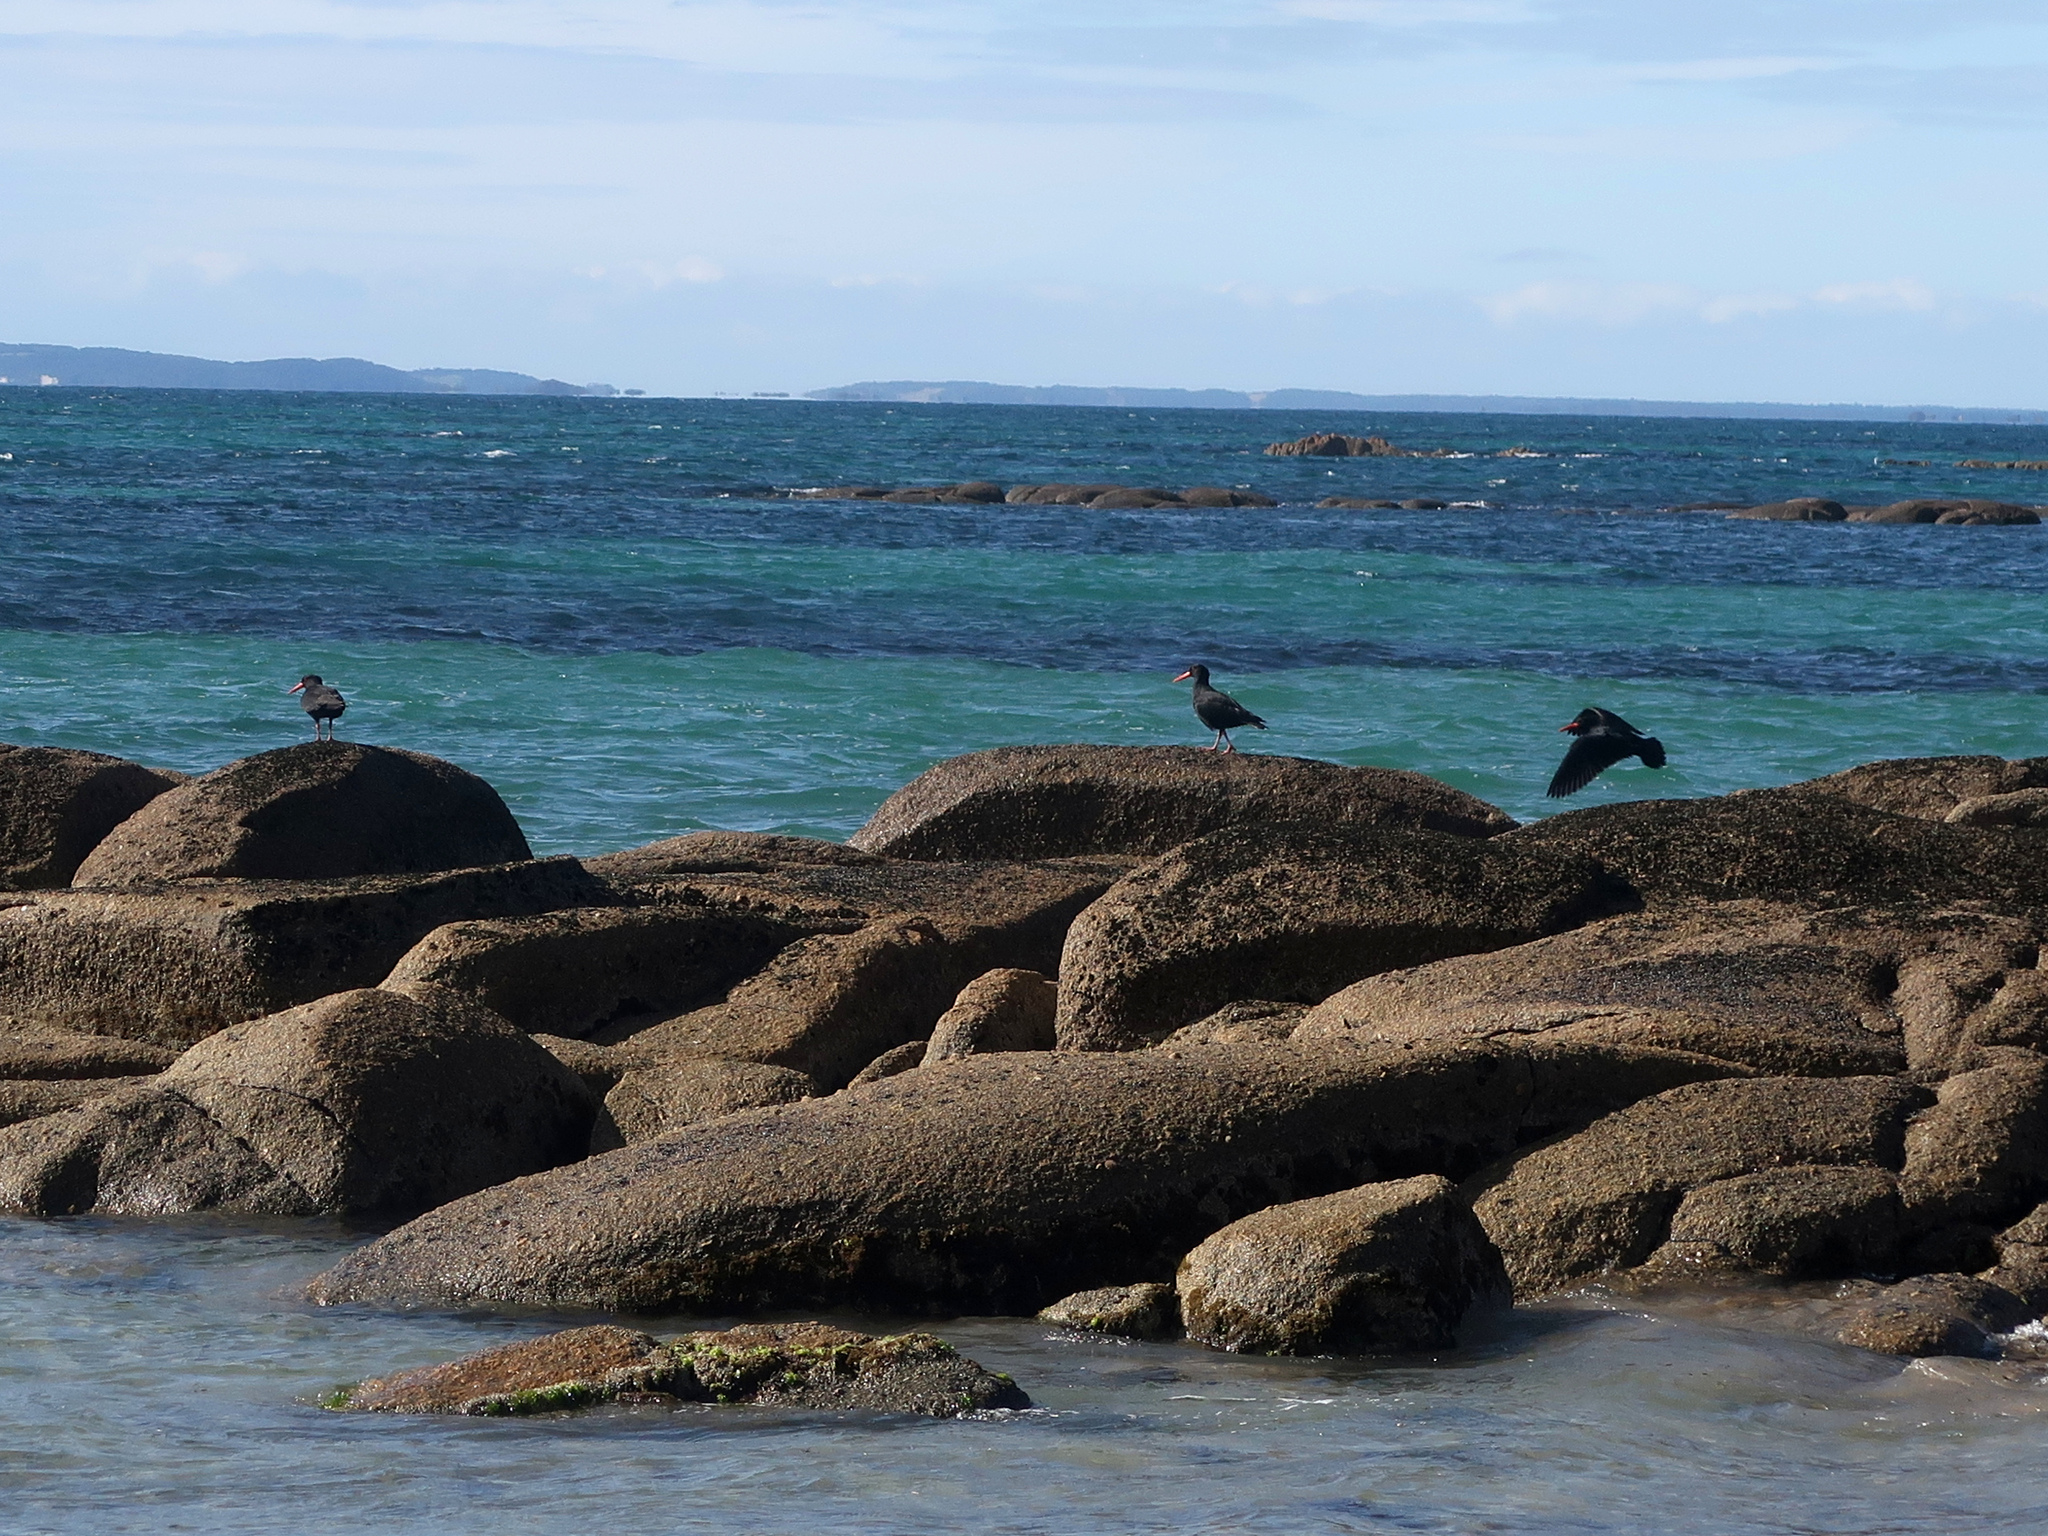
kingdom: Animalia
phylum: Chordata
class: Aves
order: Charadriiformes
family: Haematopodidae
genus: Haematopus
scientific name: Haematopus fuliginosus
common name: Sooty oystercatcher
